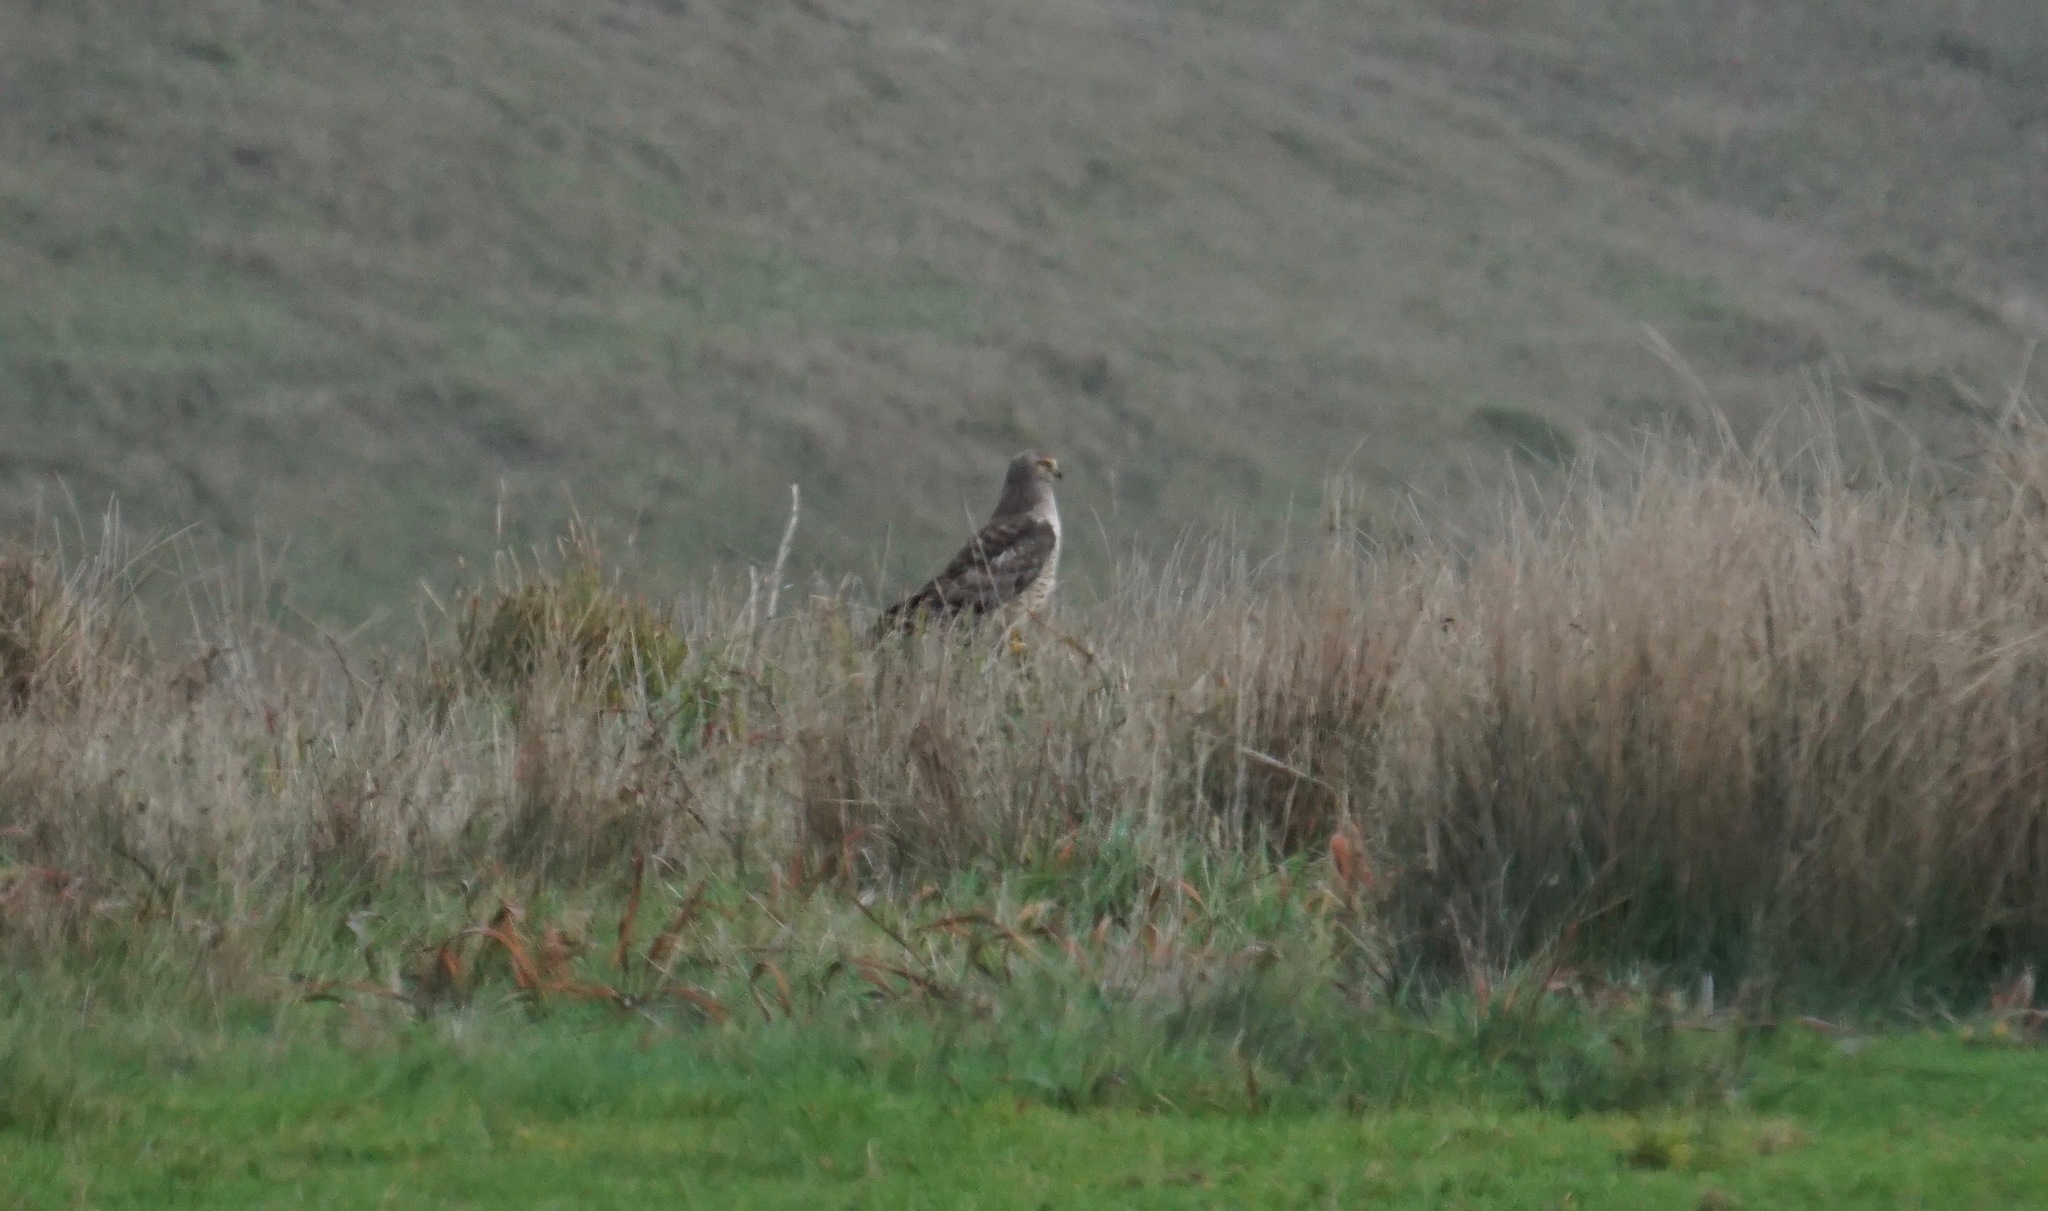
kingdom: Animalia
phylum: Chordata
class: Aves
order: Accipitriformes
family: Accipitridae
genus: Circus
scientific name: Circus cyaneus
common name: Hen harrier
